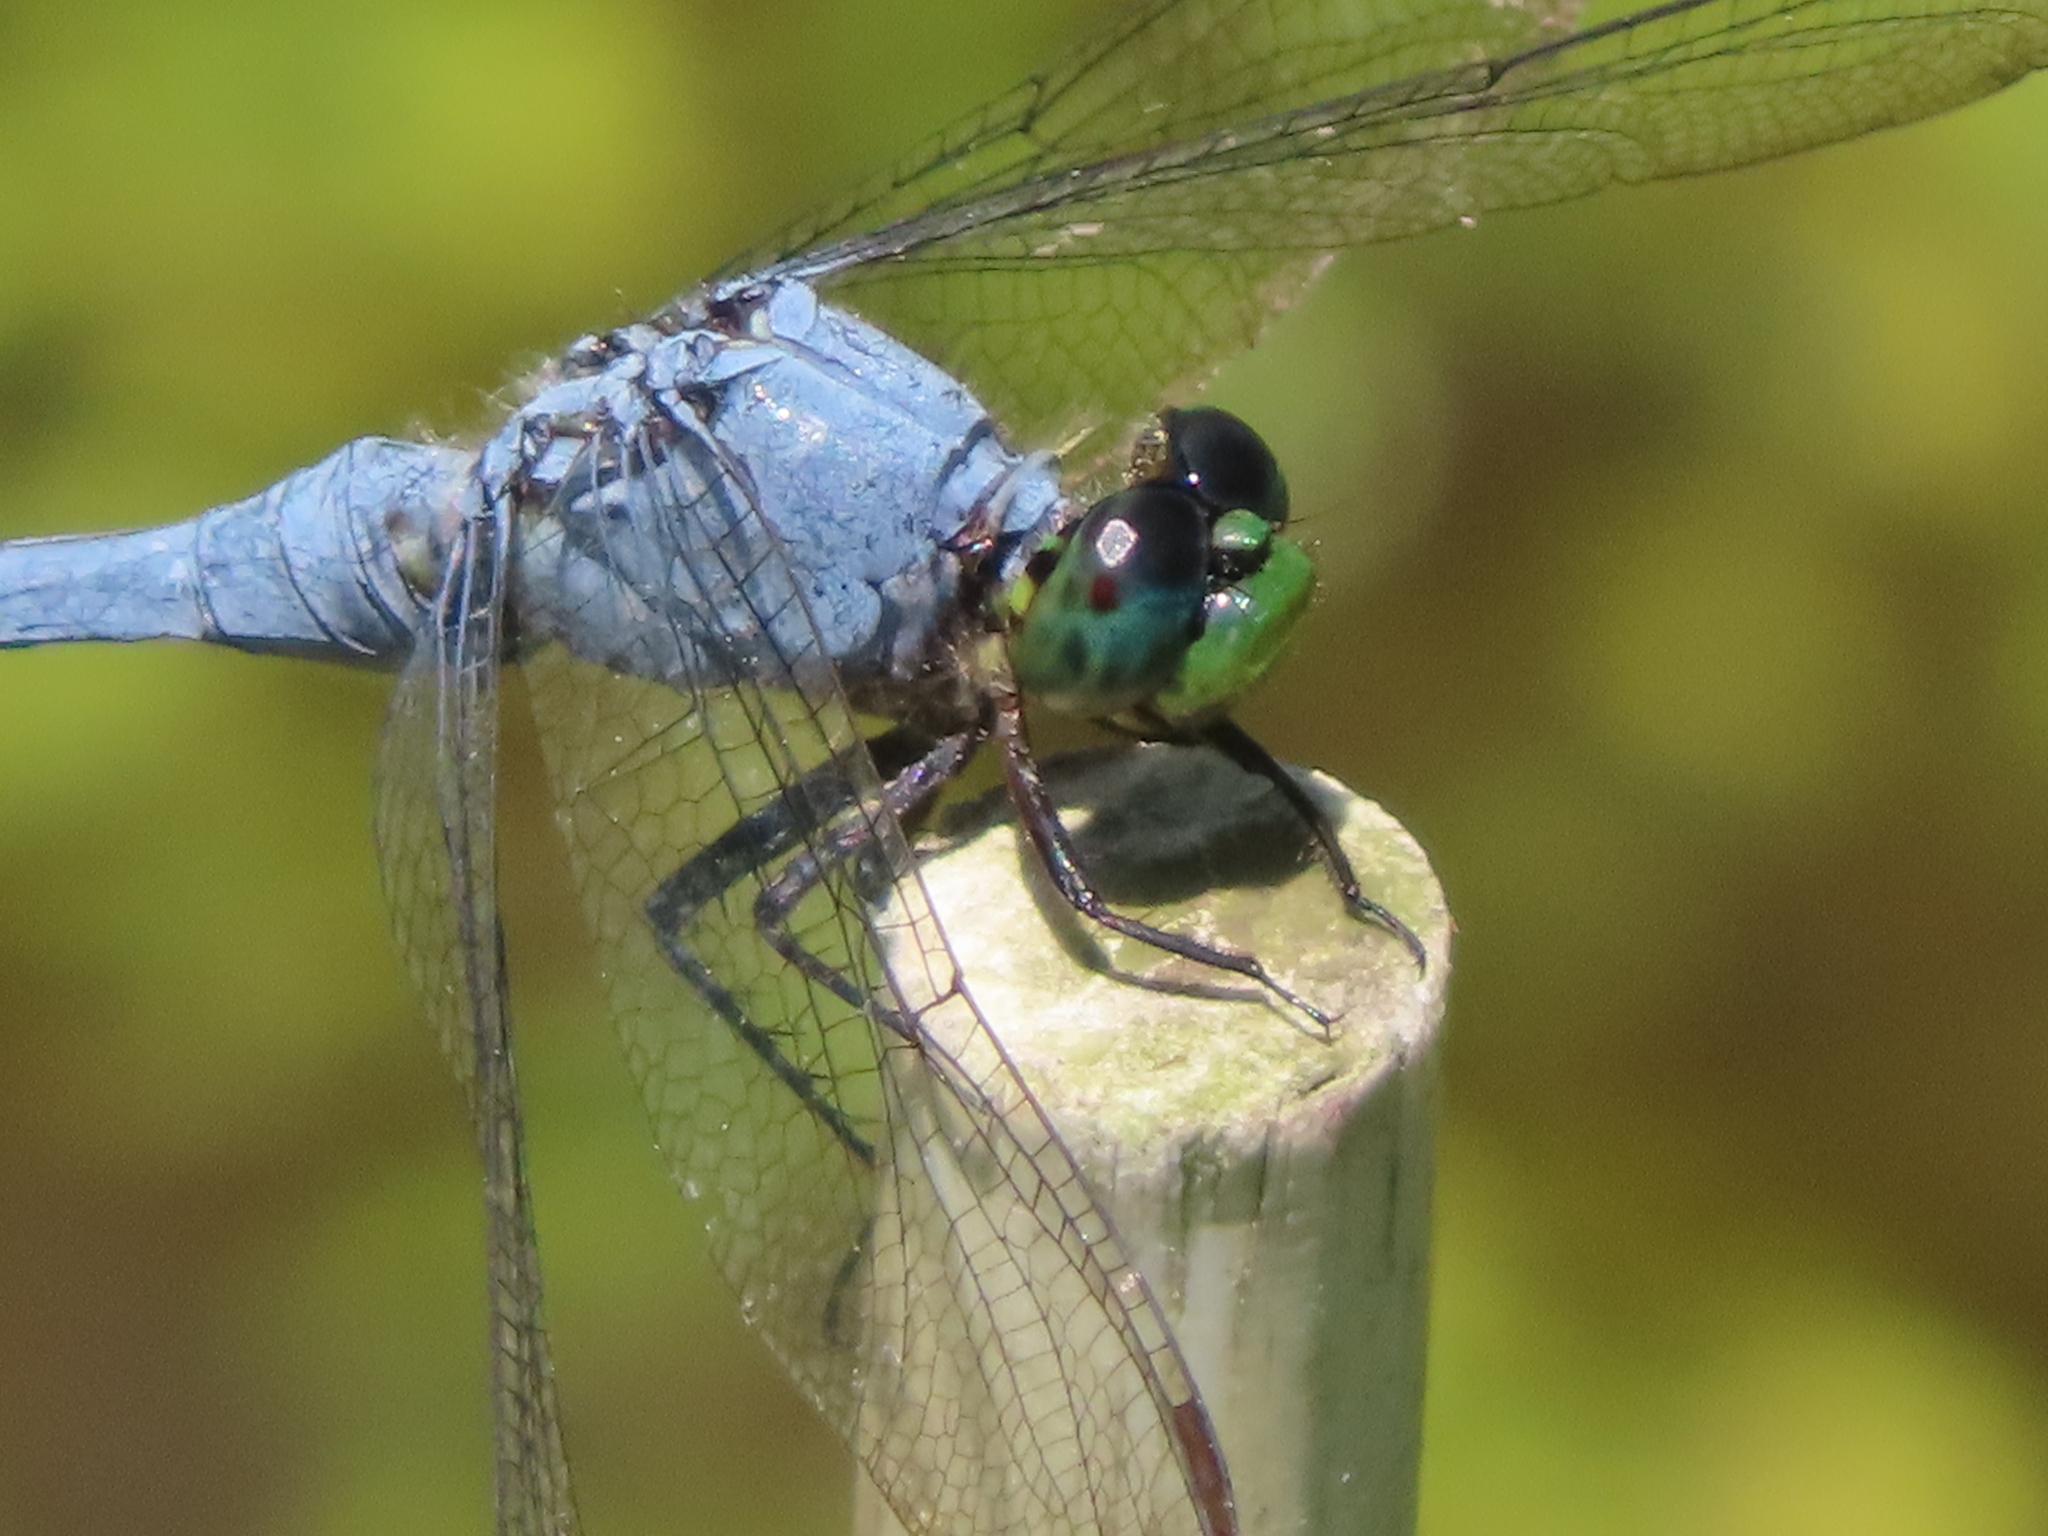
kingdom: Animalia
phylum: Arthropoda
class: Insecta
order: Odonata
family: Libellulidae
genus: Erythemis
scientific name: Erythemis simplicicollis
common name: Eastern pondhawk
